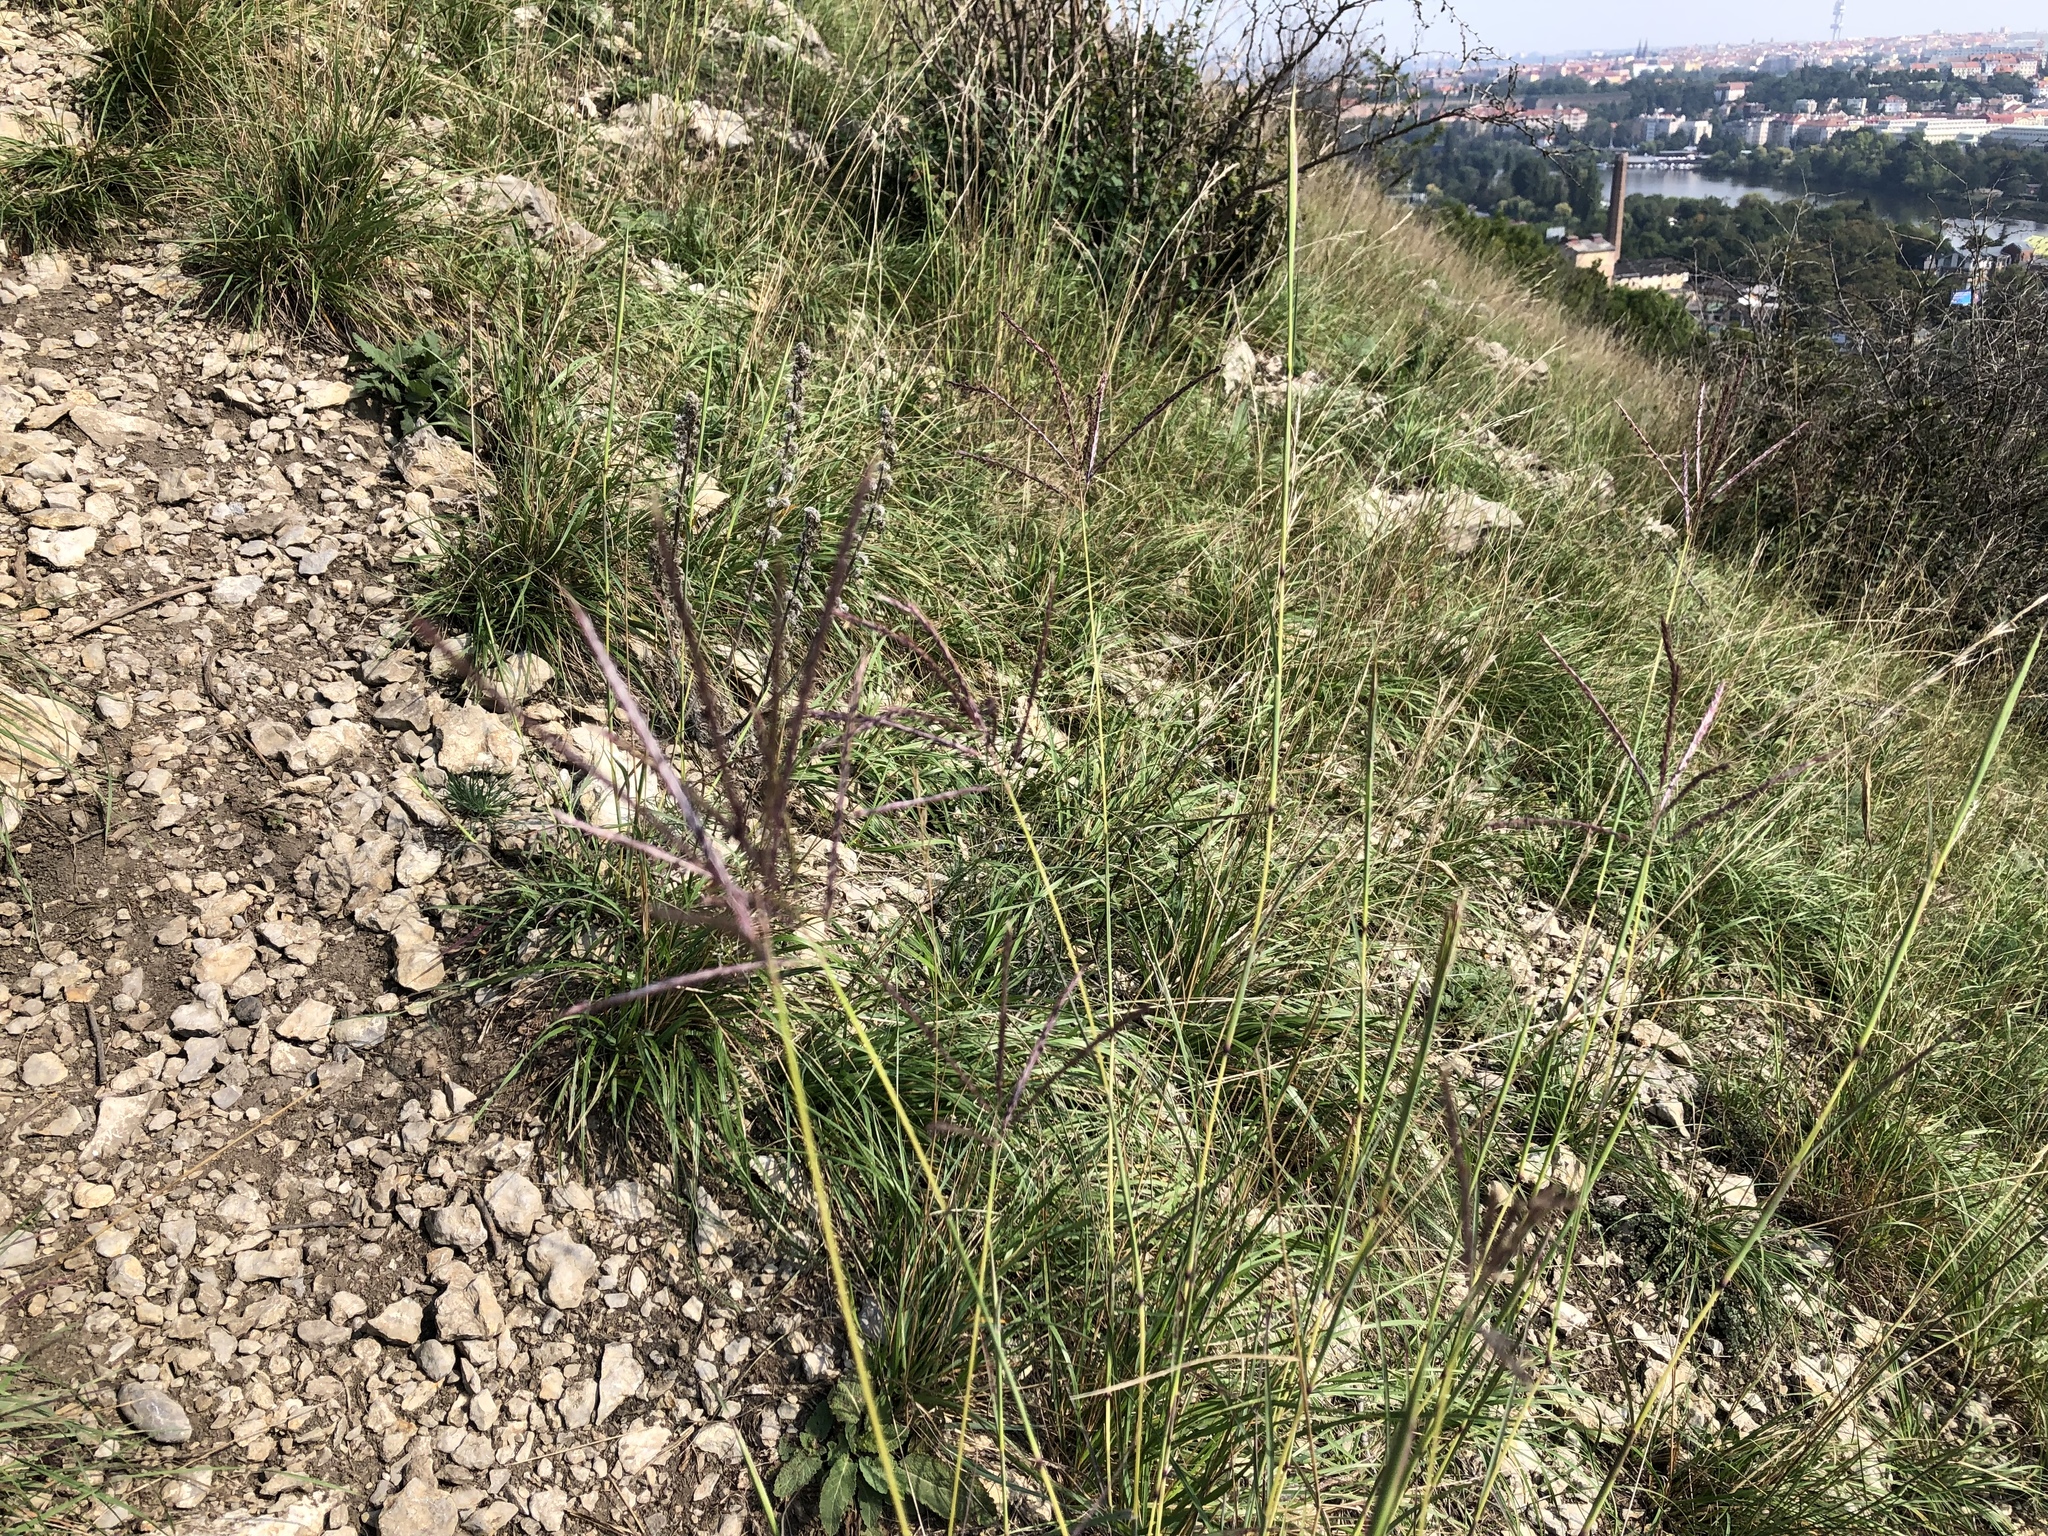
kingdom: Plantae
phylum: Tracheophyta
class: Liliopsida
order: Poales
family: Poaceae
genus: Bothriochloa
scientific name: Bothriochloa ischaemum
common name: Yellow bluestem
